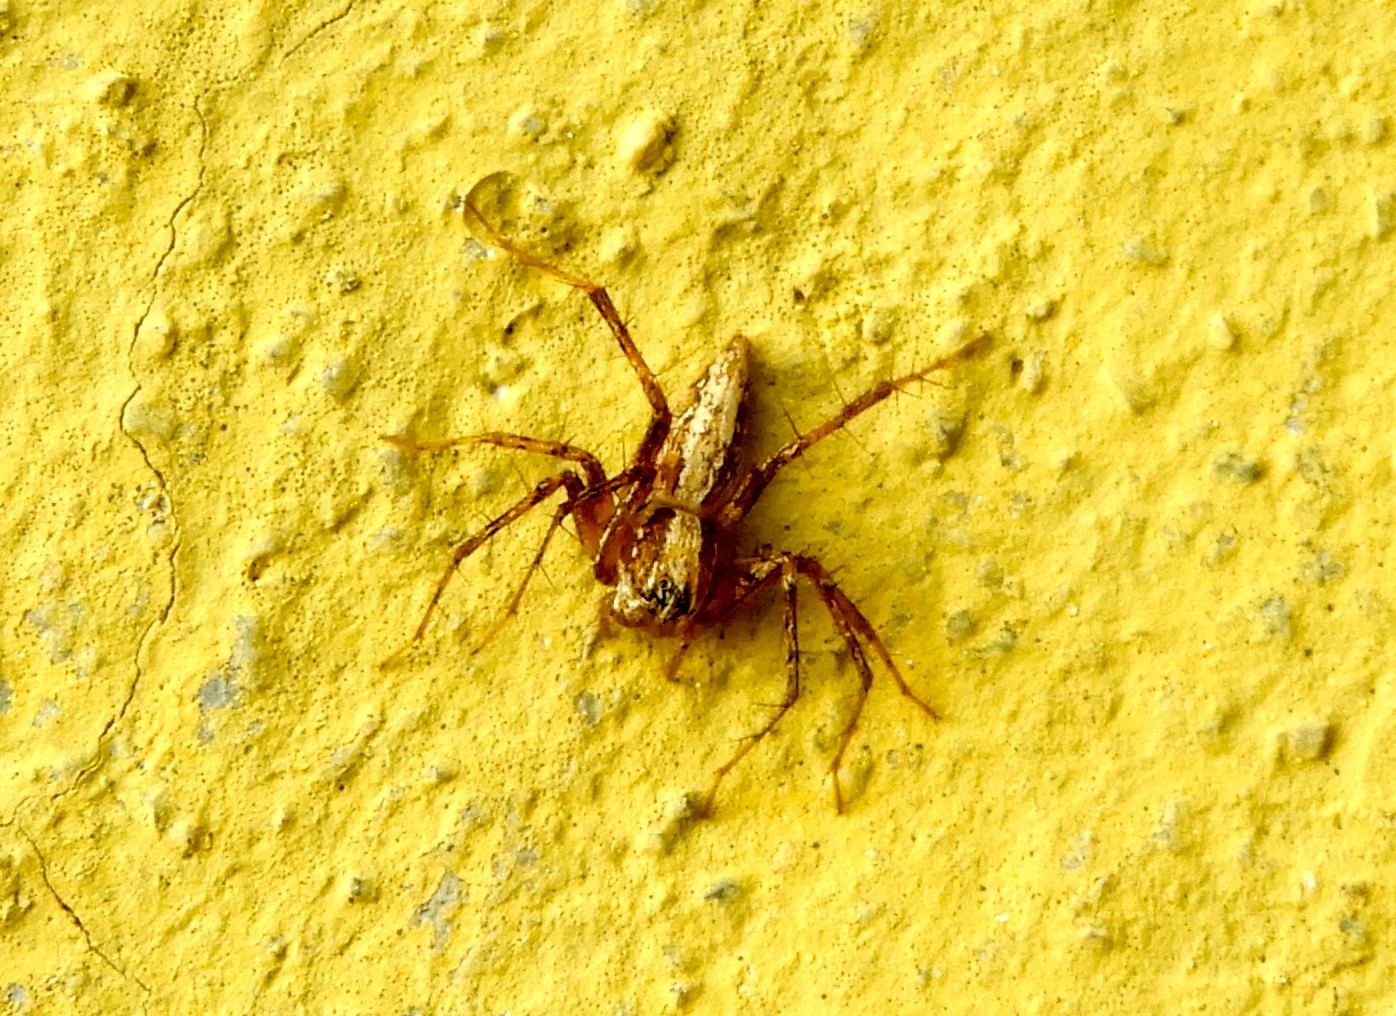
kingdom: Animalia
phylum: Arthropoda
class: Arachnida
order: Araneae
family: Oxyopidae
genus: Oxyopes
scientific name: Oxyopes
